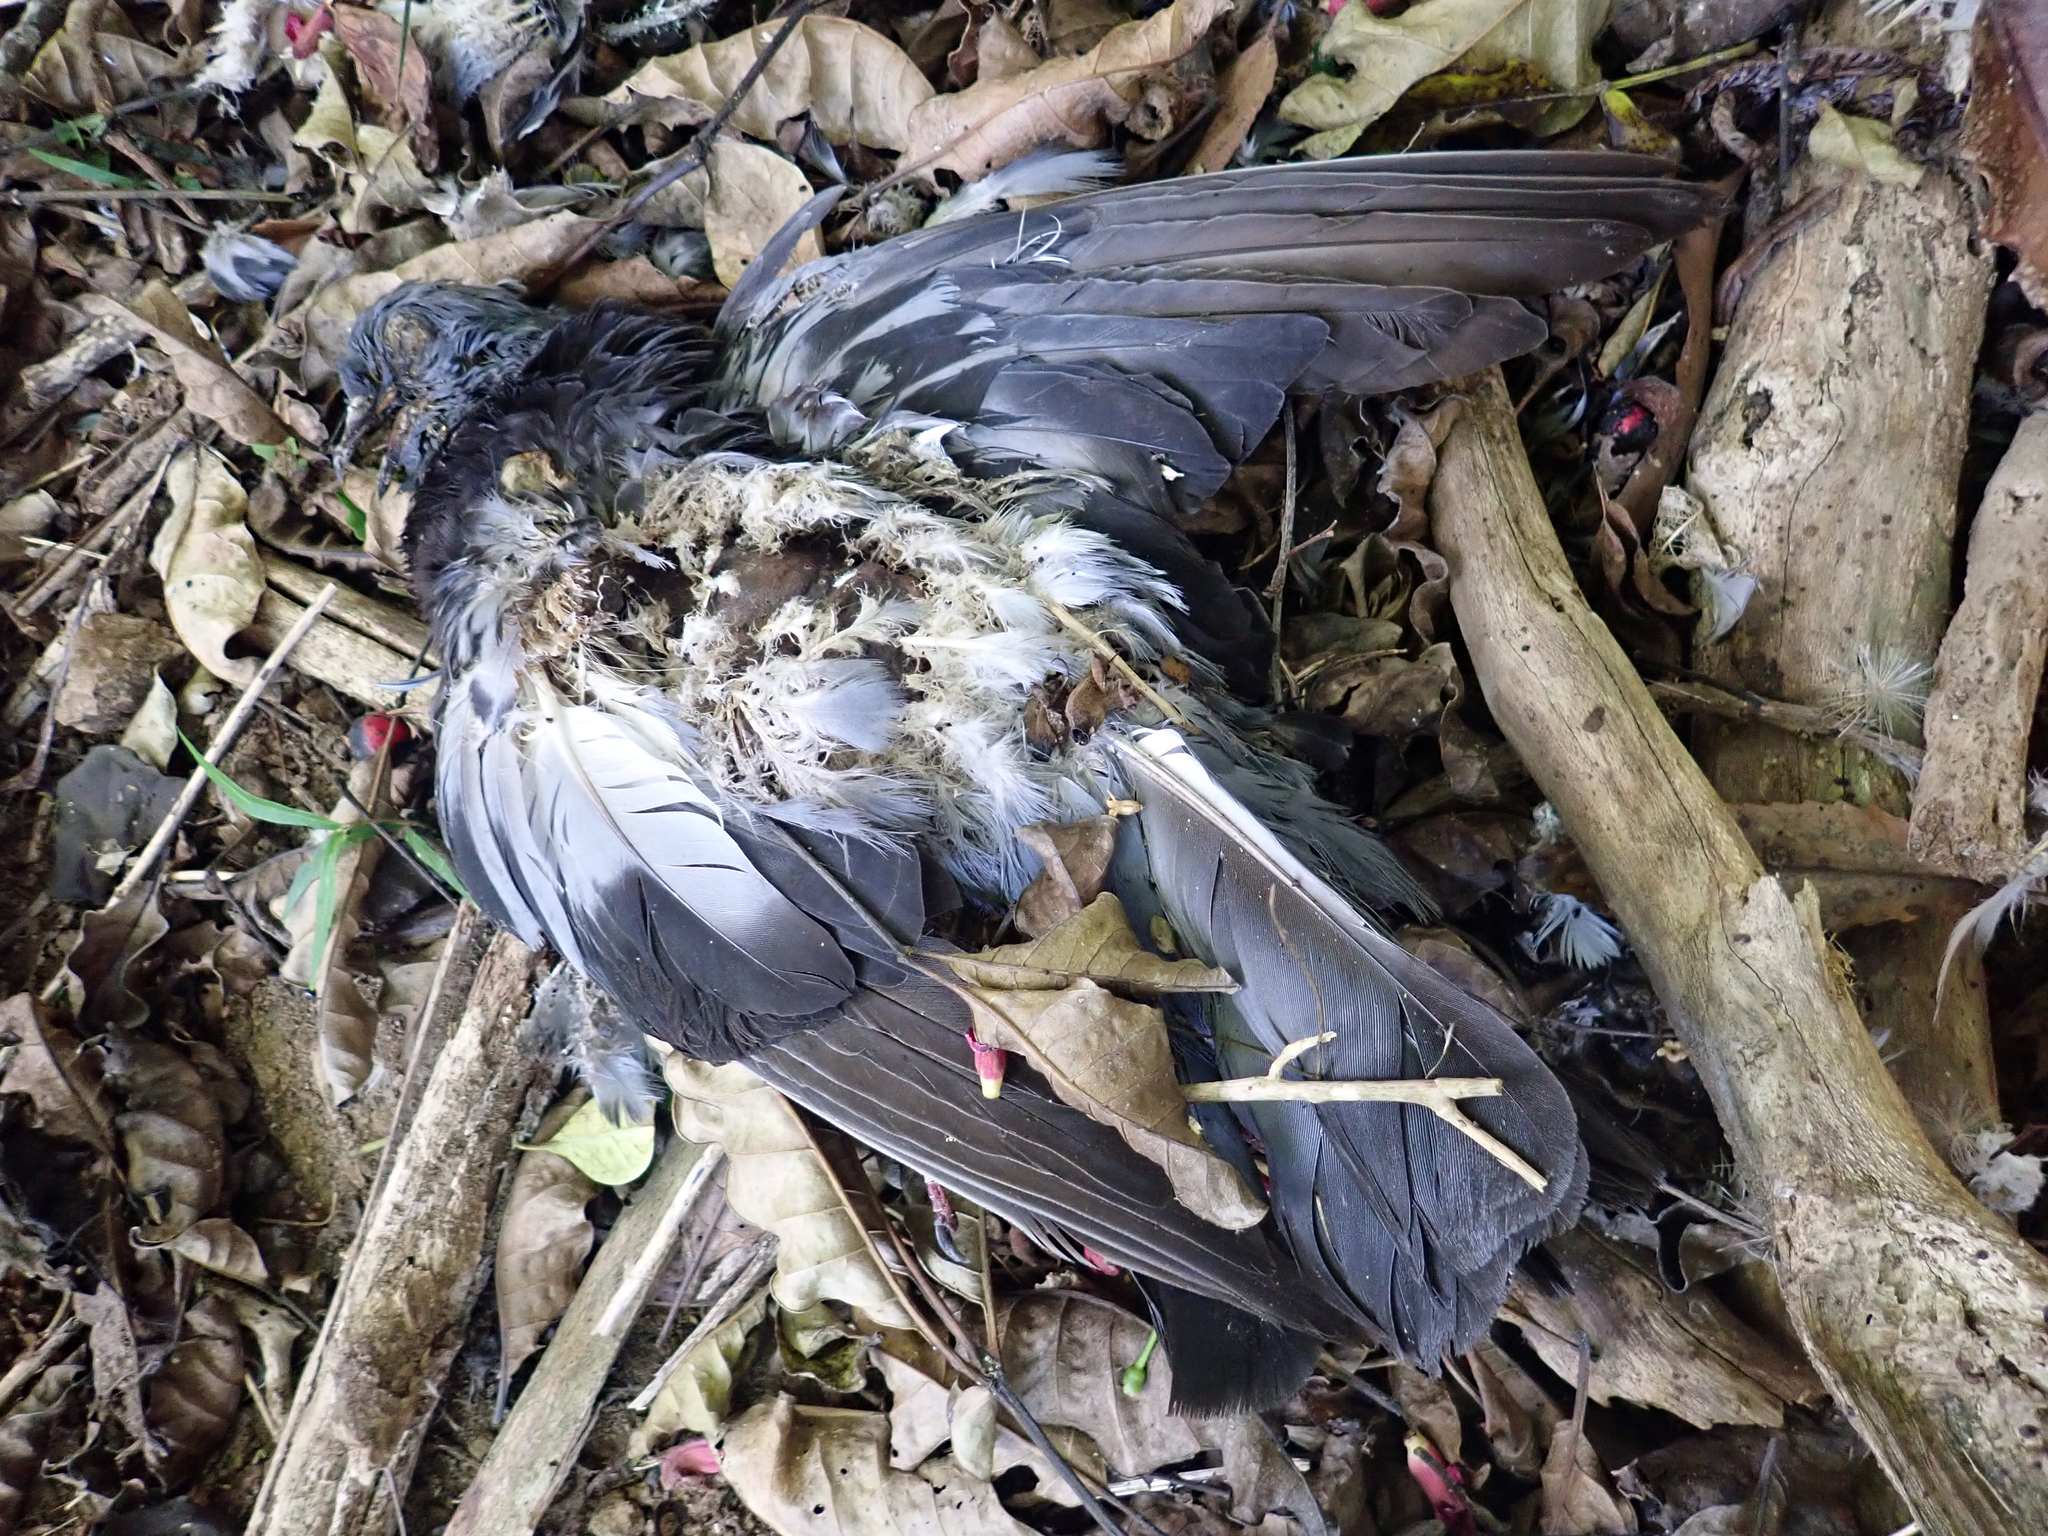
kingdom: Animalia
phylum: Chordata
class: Aves
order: Columbiformes
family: Columbidae
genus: Columba
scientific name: Columba livia
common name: Rock pigeon
